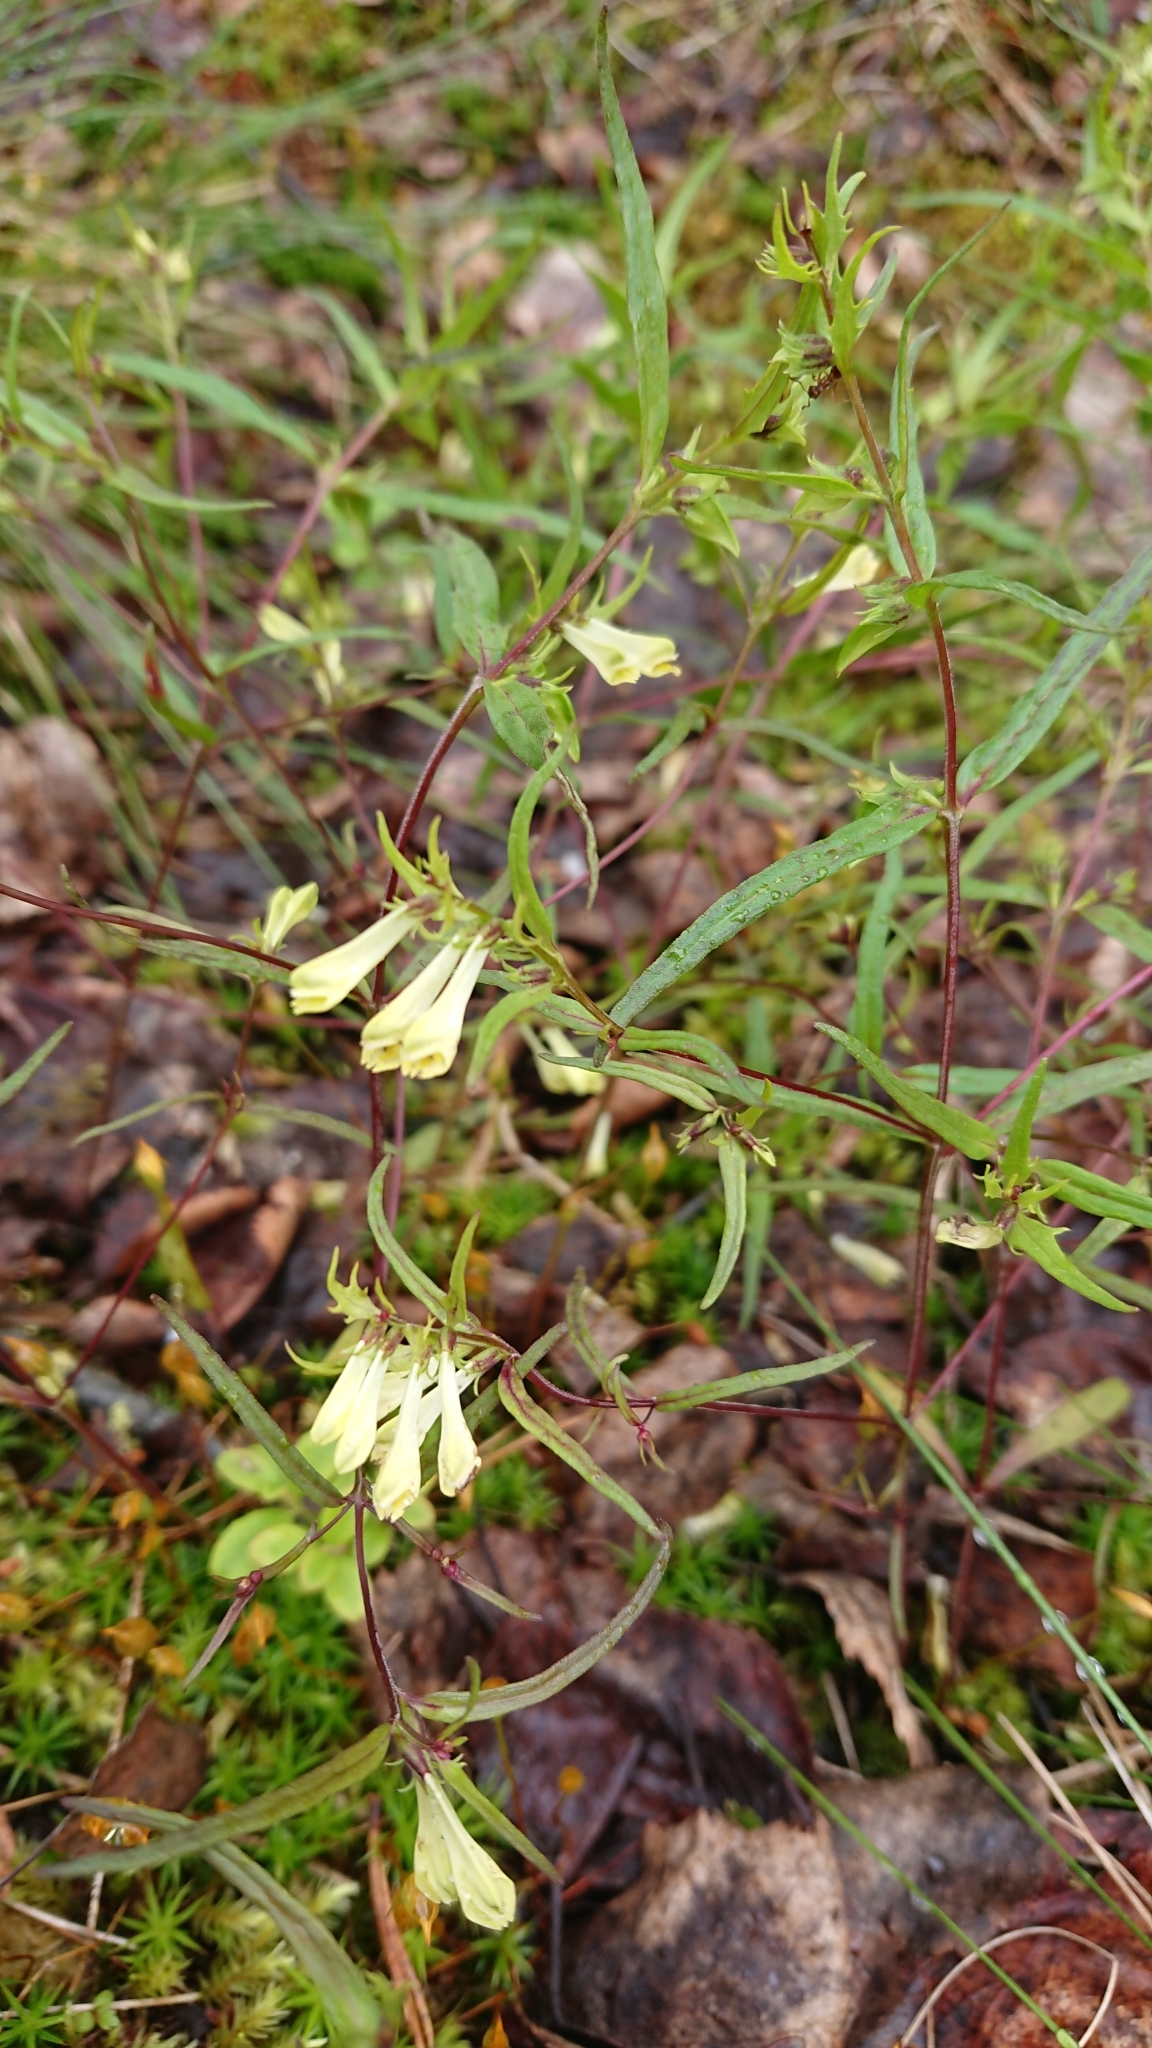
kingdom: Plantae
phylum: Tracheophyta
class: Magnoliopsida
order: Lamiales
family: Orobanchaceae
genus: Melampyrum
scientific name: Melampyrum pratense
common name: Common cow-wheat
